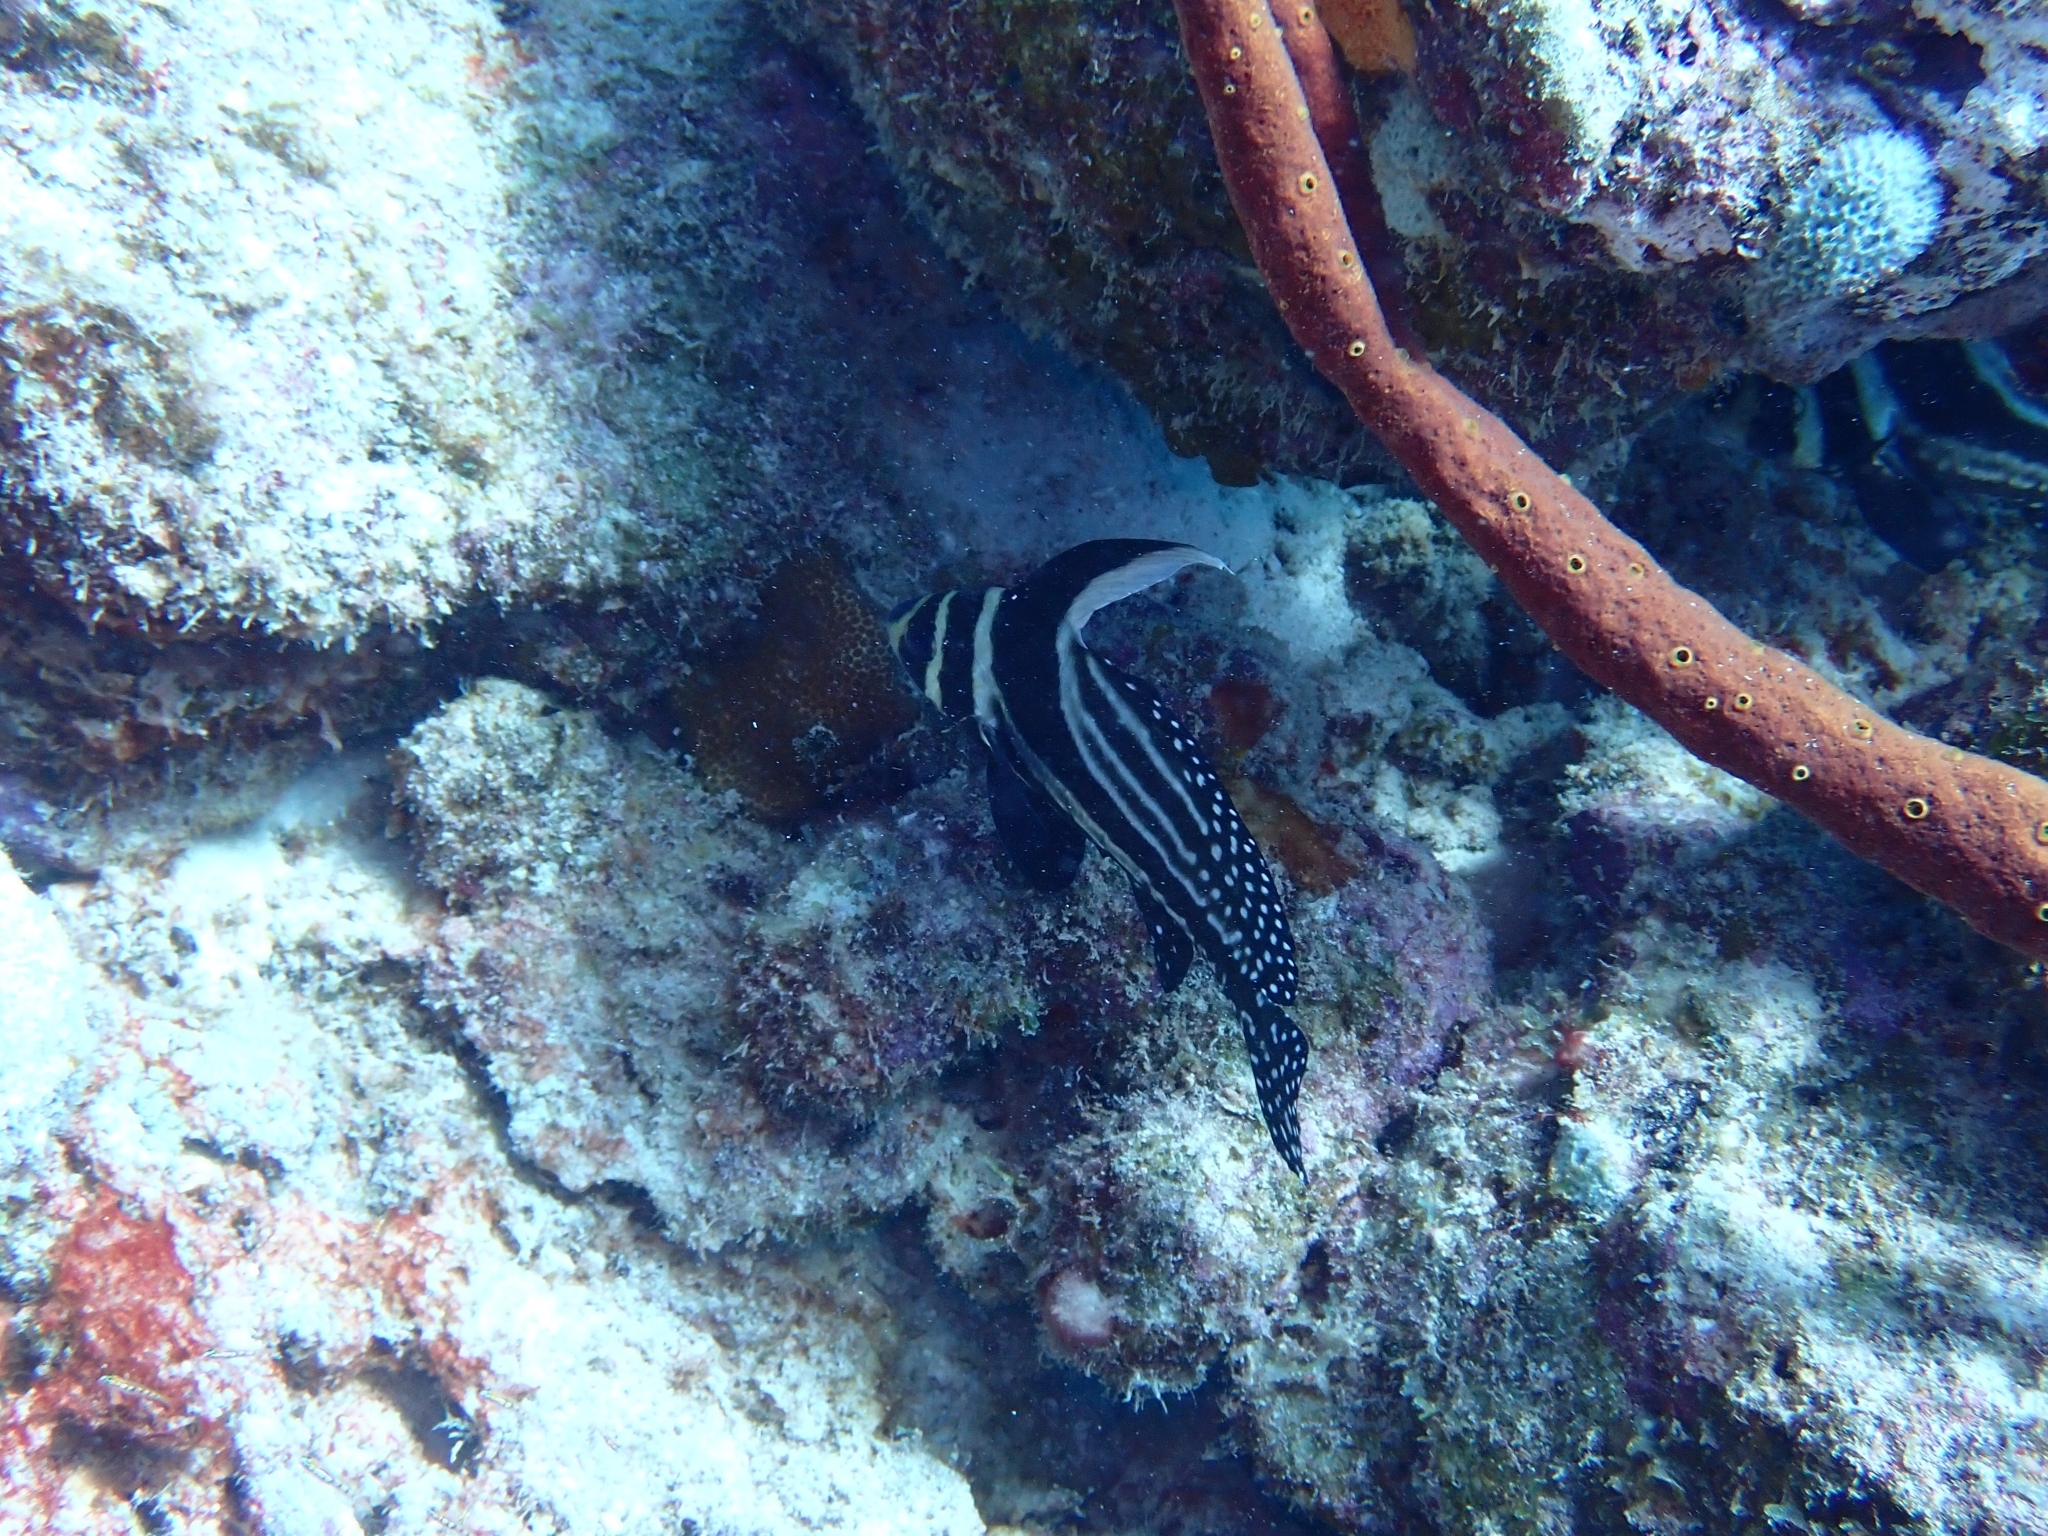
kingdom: Animalia
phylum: Chordata
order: Perciformes
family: Sciaenidae
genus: Equetus
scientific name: Equetus punctatus
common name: Spotted drum
